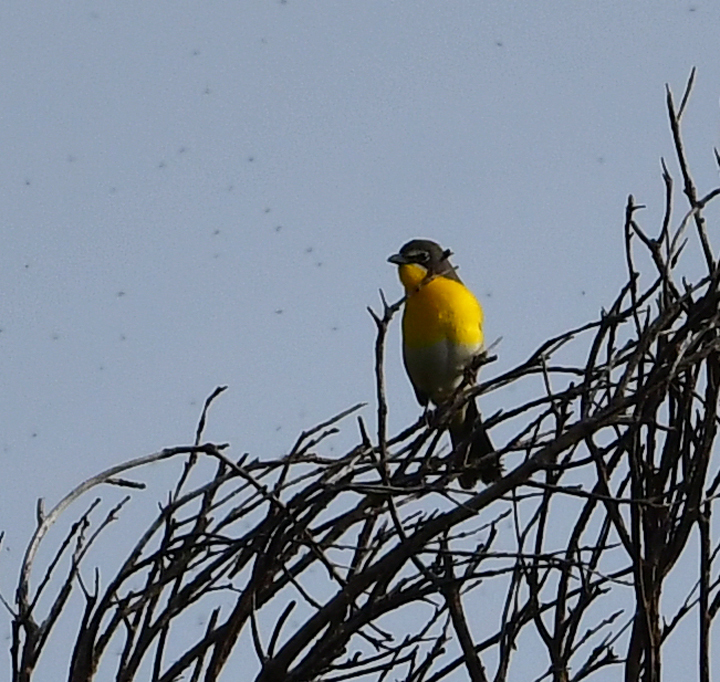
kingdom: Animalia
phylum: Chordata
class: Aves
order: Passeriformes
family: Parulidae
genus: Icteria
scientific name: Icteria virens
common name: Yellow-breasted chat
